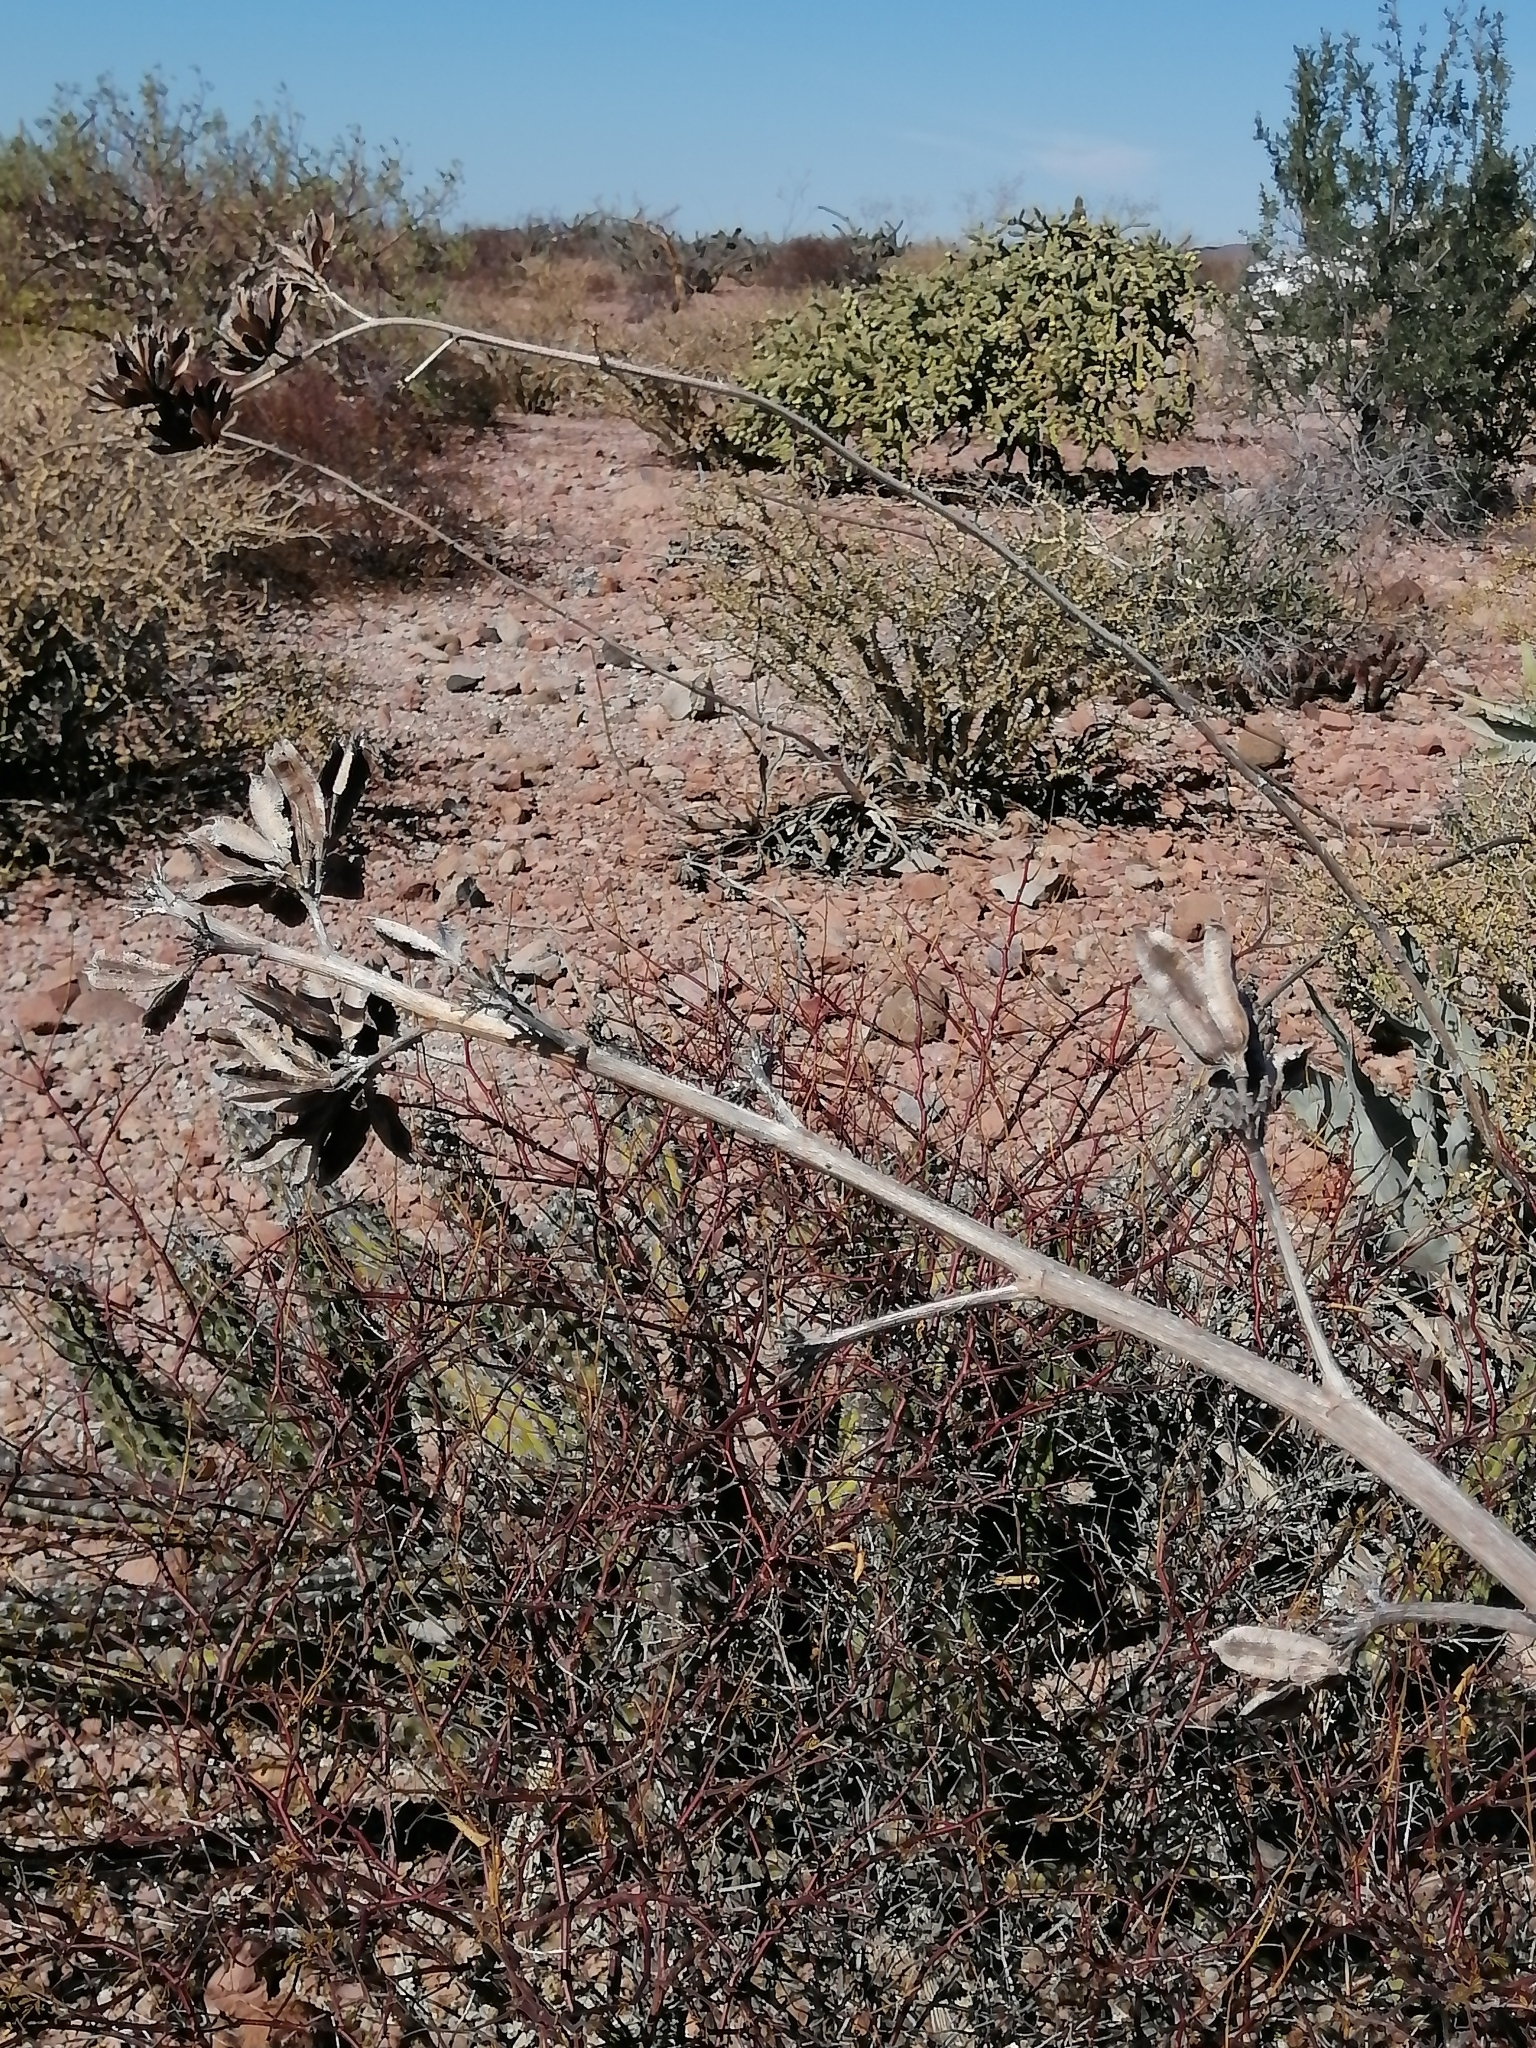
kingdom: Plantae
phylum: Tracheophyta
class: Liliopsida
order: Asparagales
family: Asparagaceae
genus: Agave
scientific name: Agave sobria
